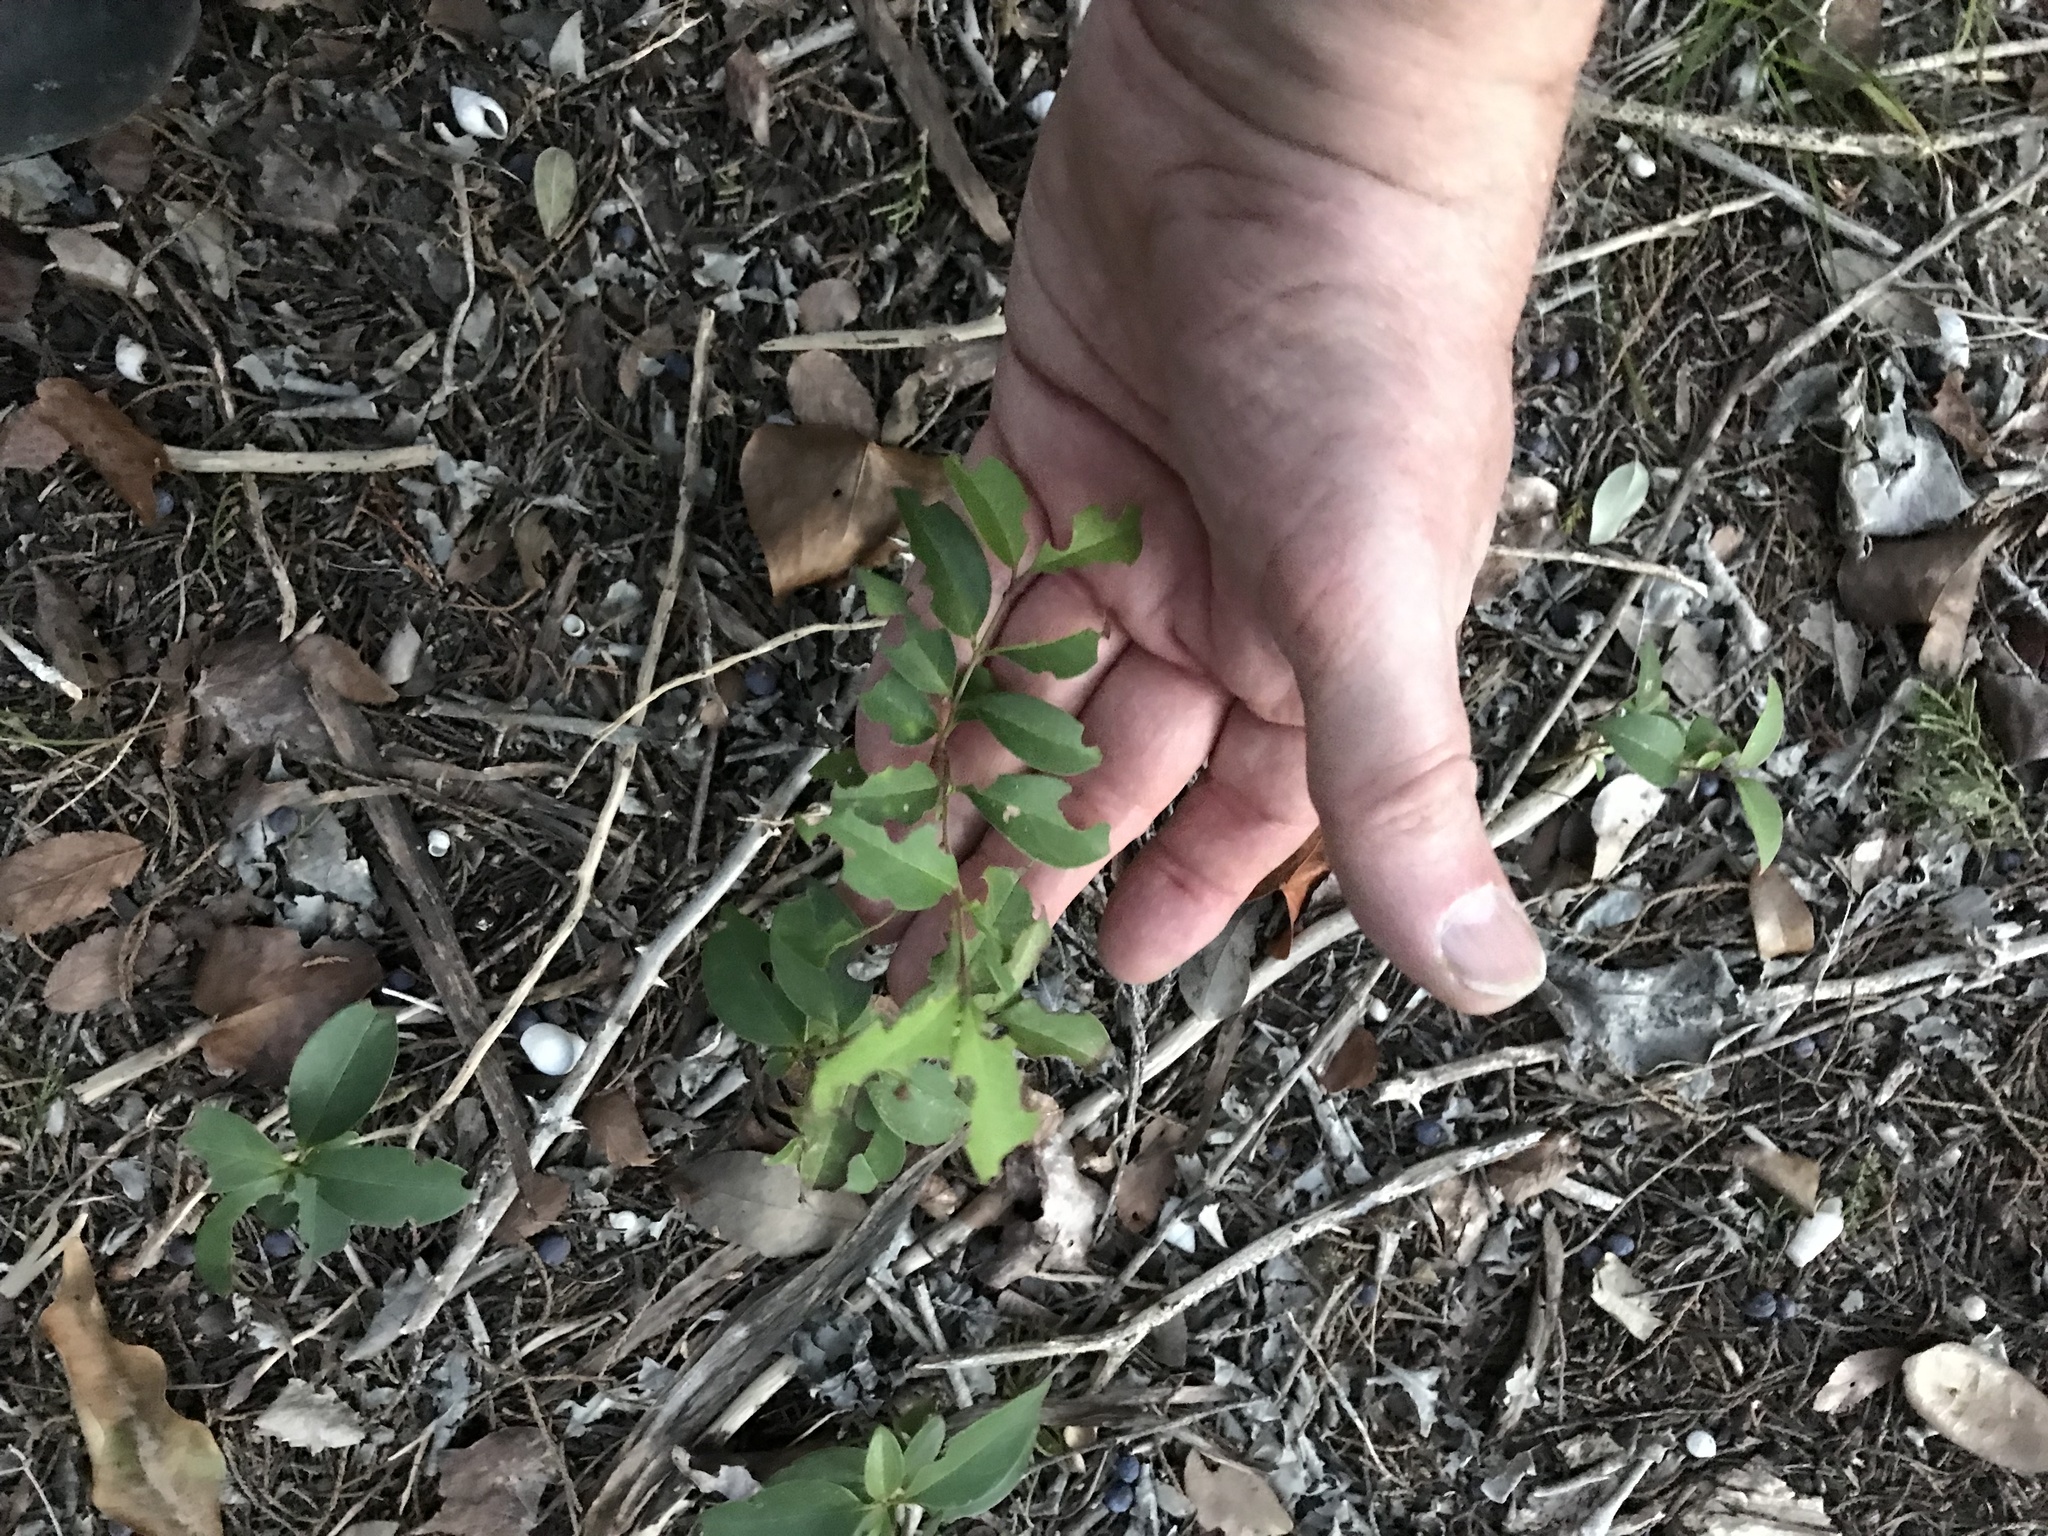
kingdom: Plantae
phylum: Tracheophyta
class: Magnoliopsida
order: Lamiales
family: Oleaceae
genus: Ligustrum
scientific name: Ligustrum lucidum
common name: Glossy privet
